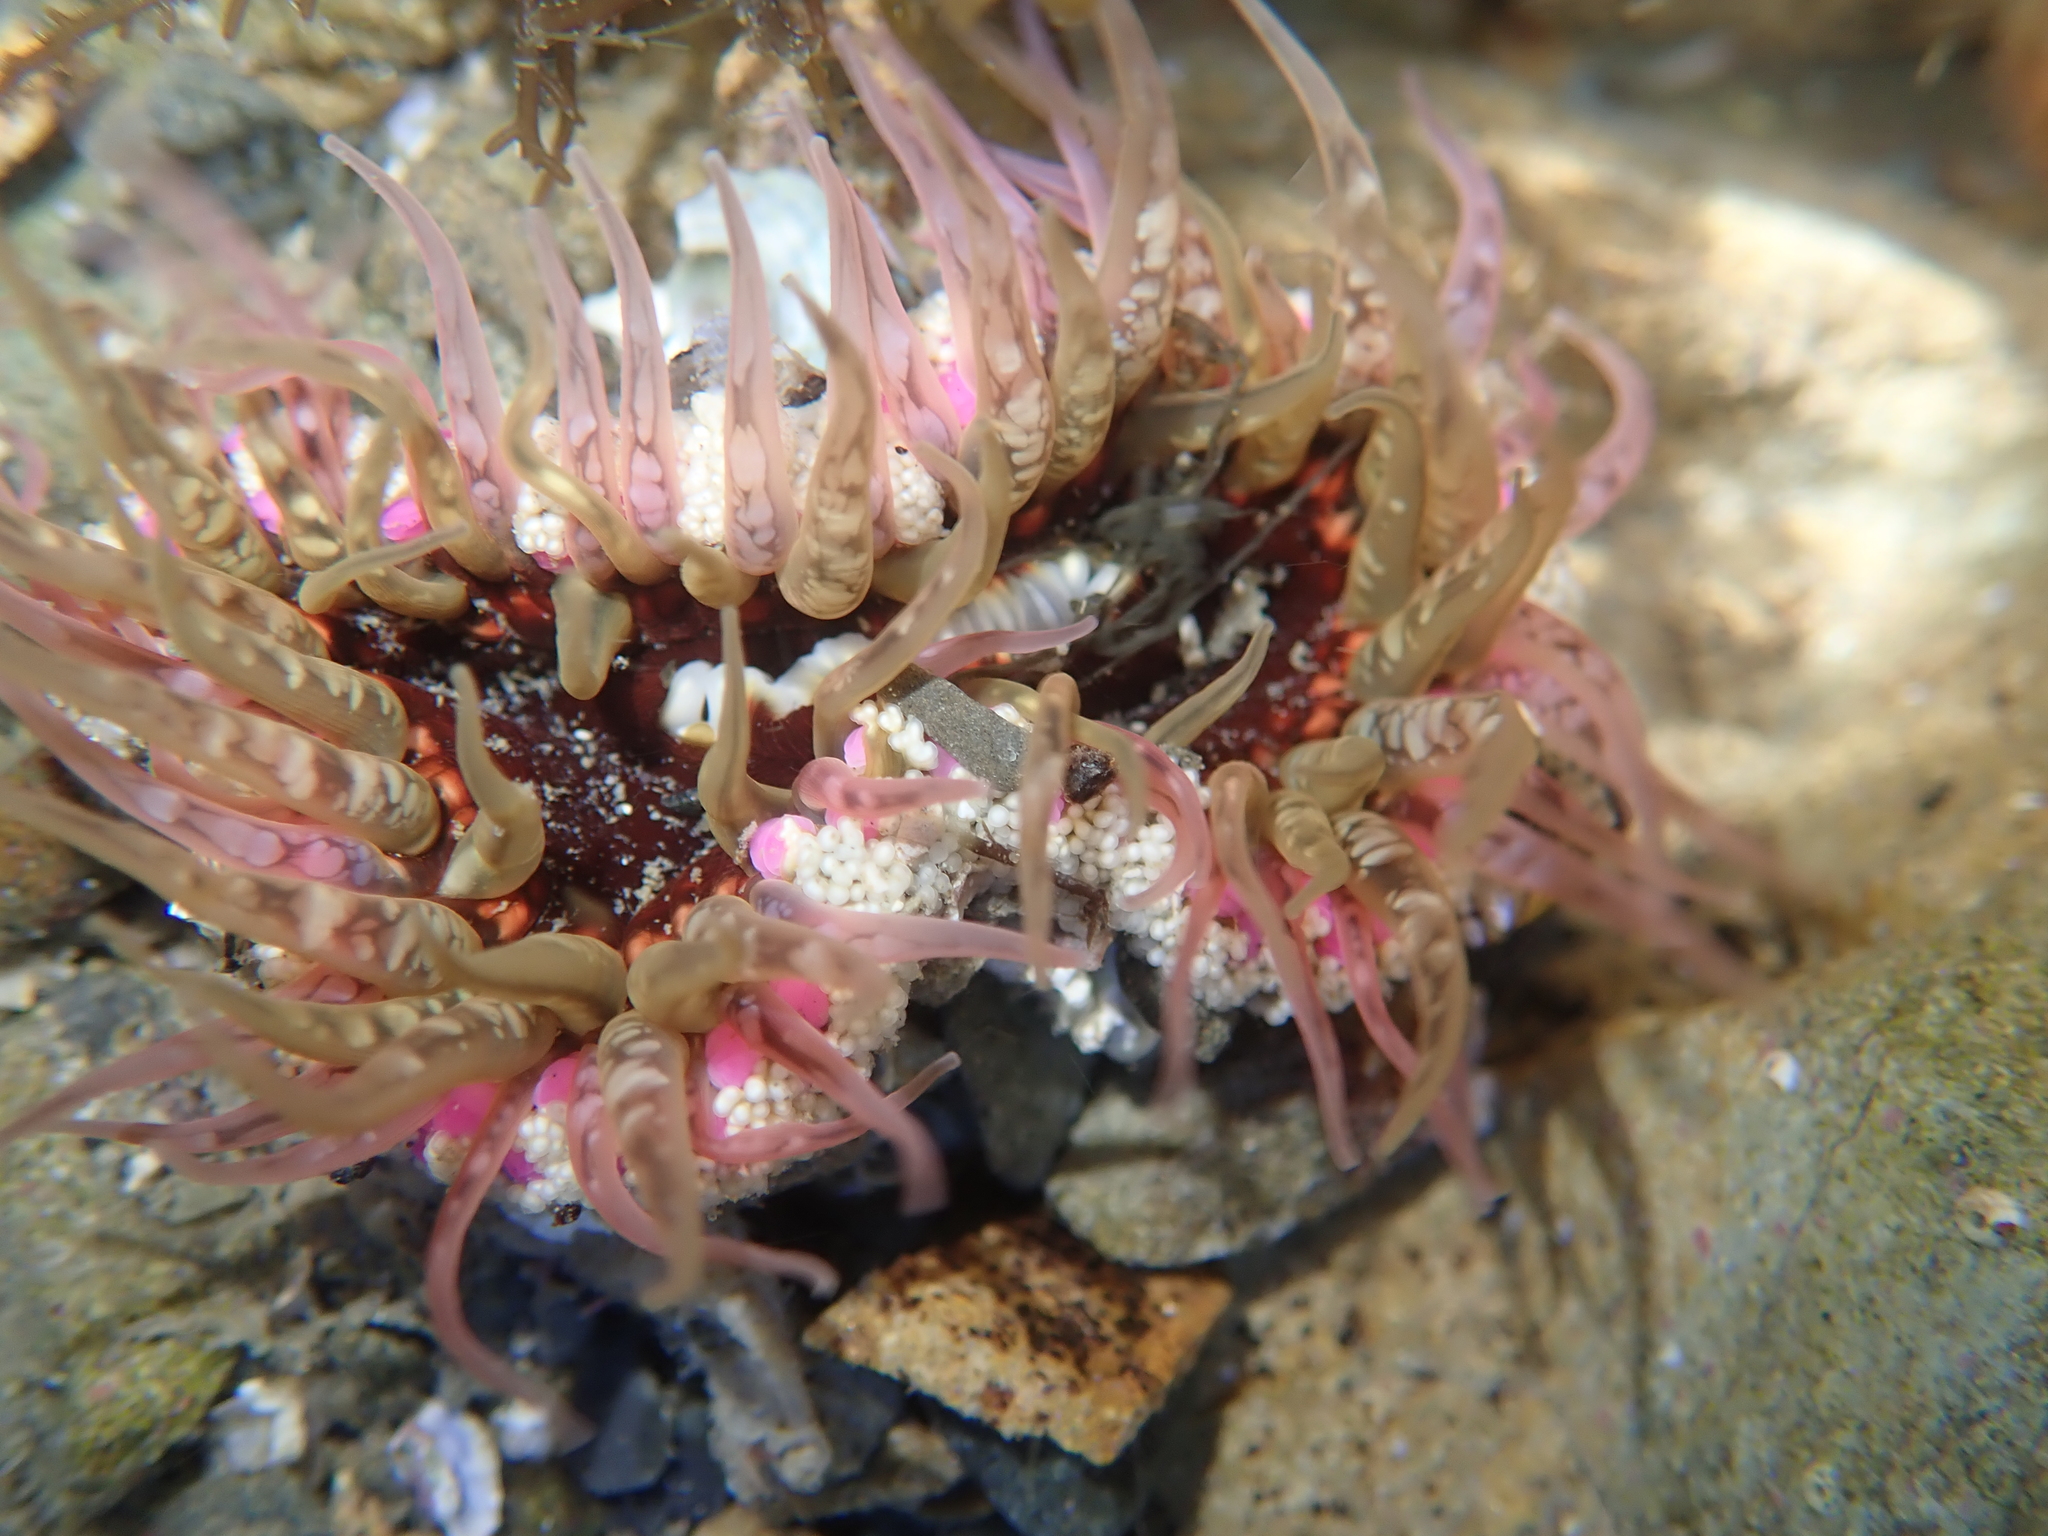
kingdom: Animalia
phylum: Cnidaria
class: Anthozoa
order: Actiniaria
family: Actiniidae
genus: Oulactis
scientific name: Oulactis muscosa
